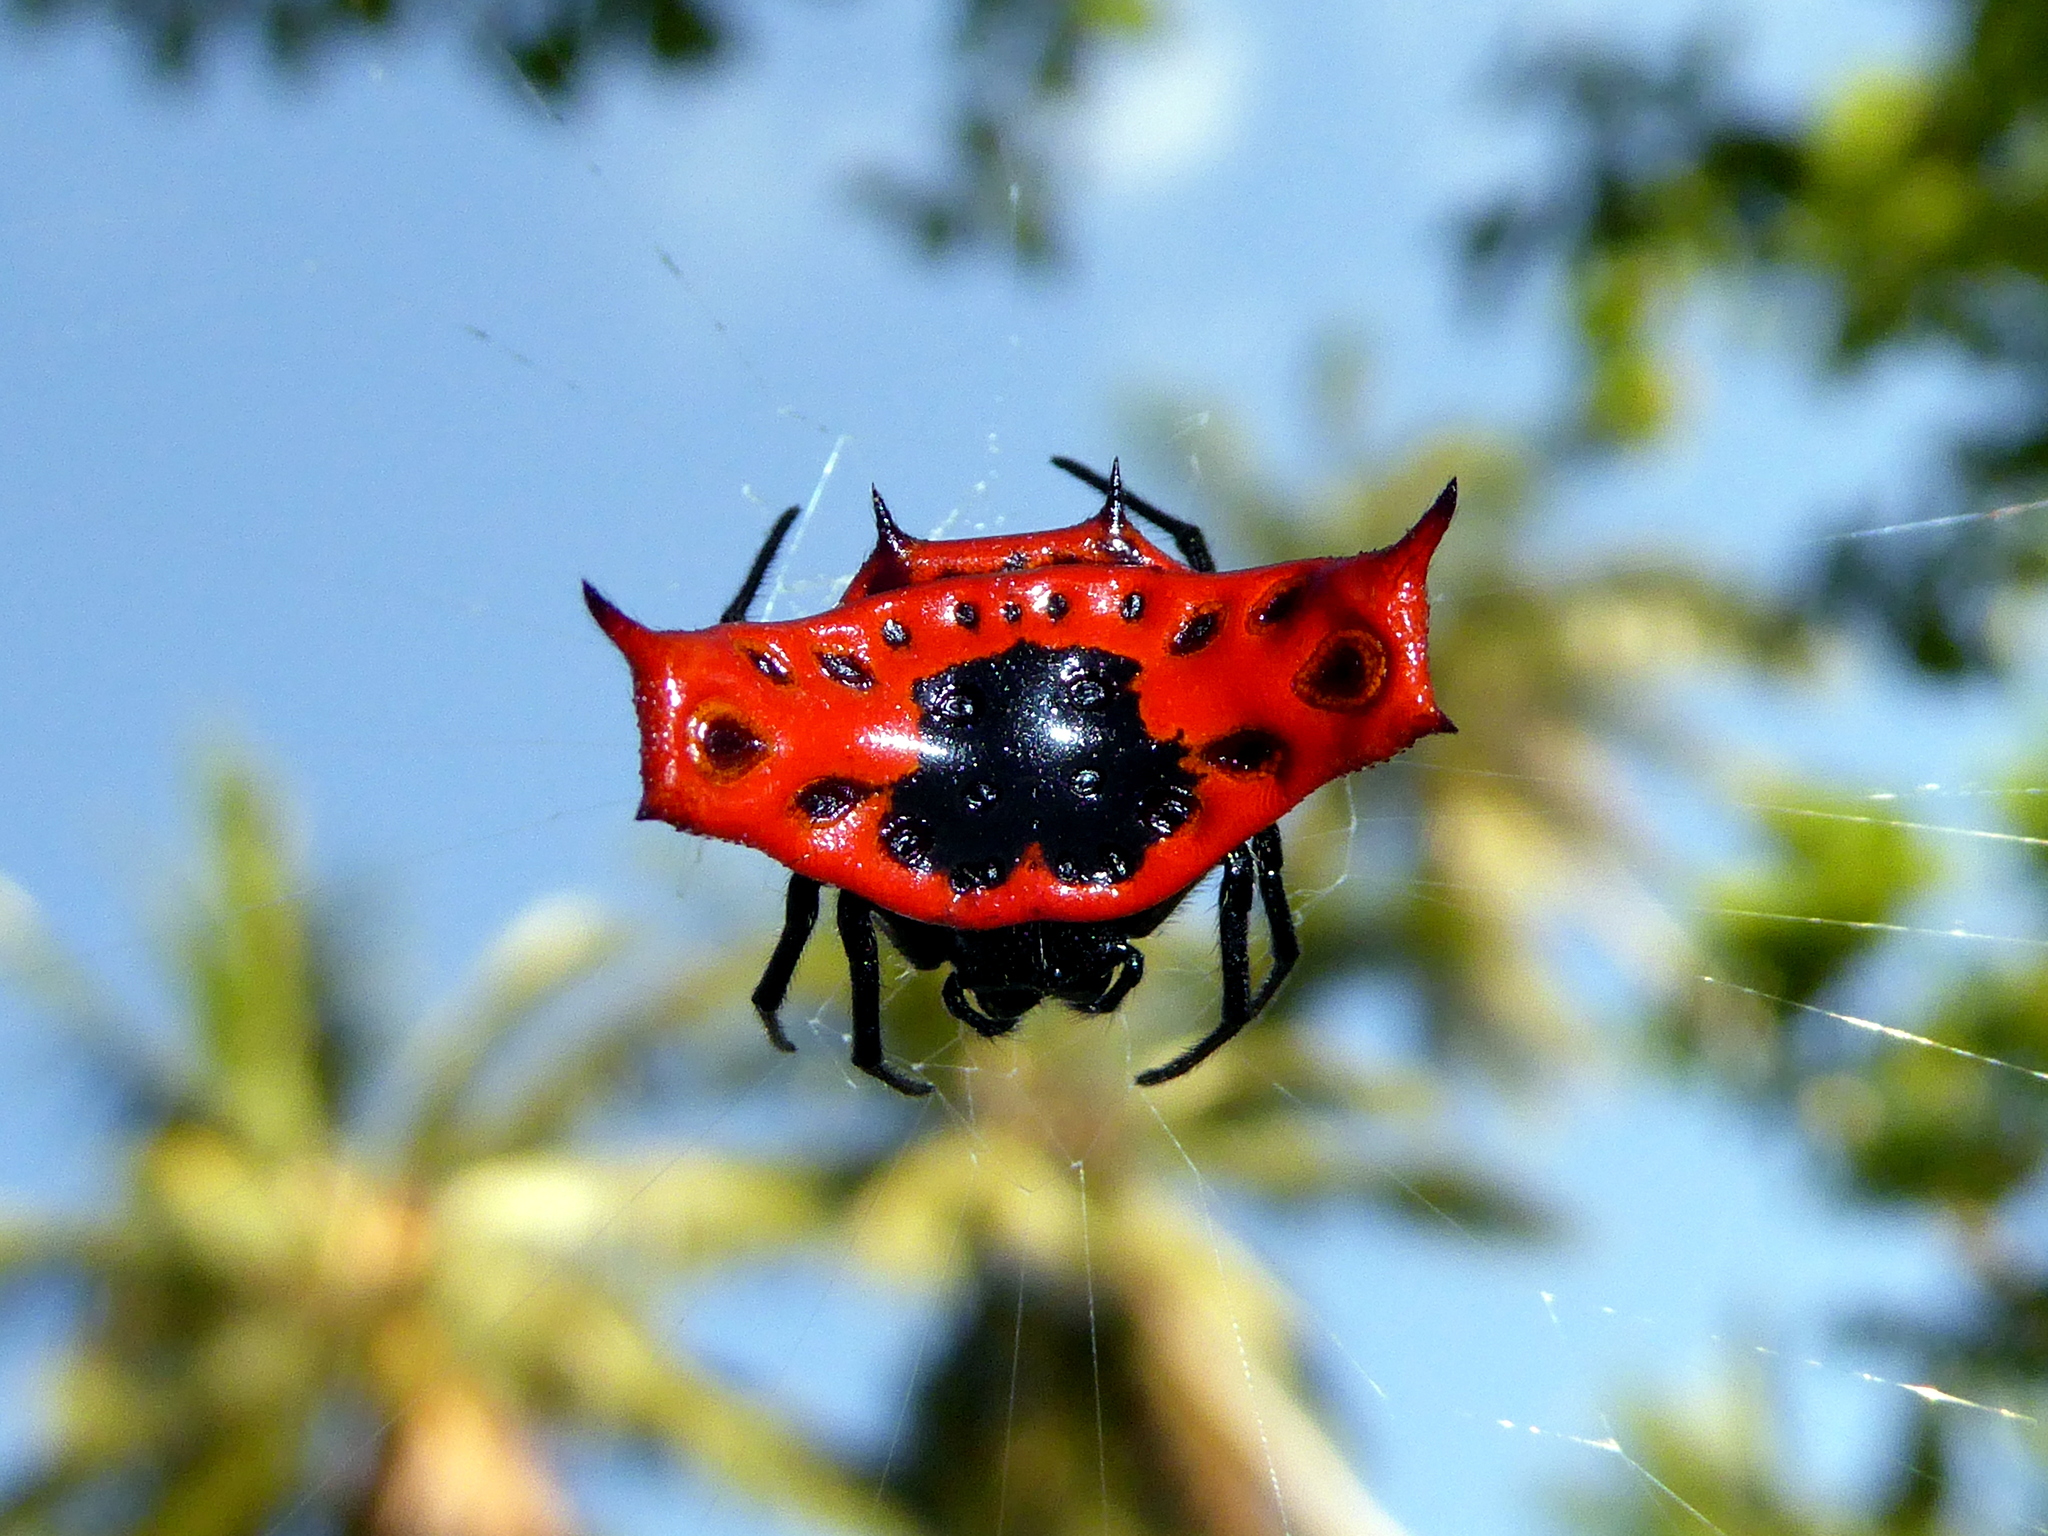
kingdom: Animalia
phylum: Arthropoda
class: Arachnida
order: Araneae
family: Araneidae
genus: Gasteracantha
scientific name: Gasteracantha signifera
